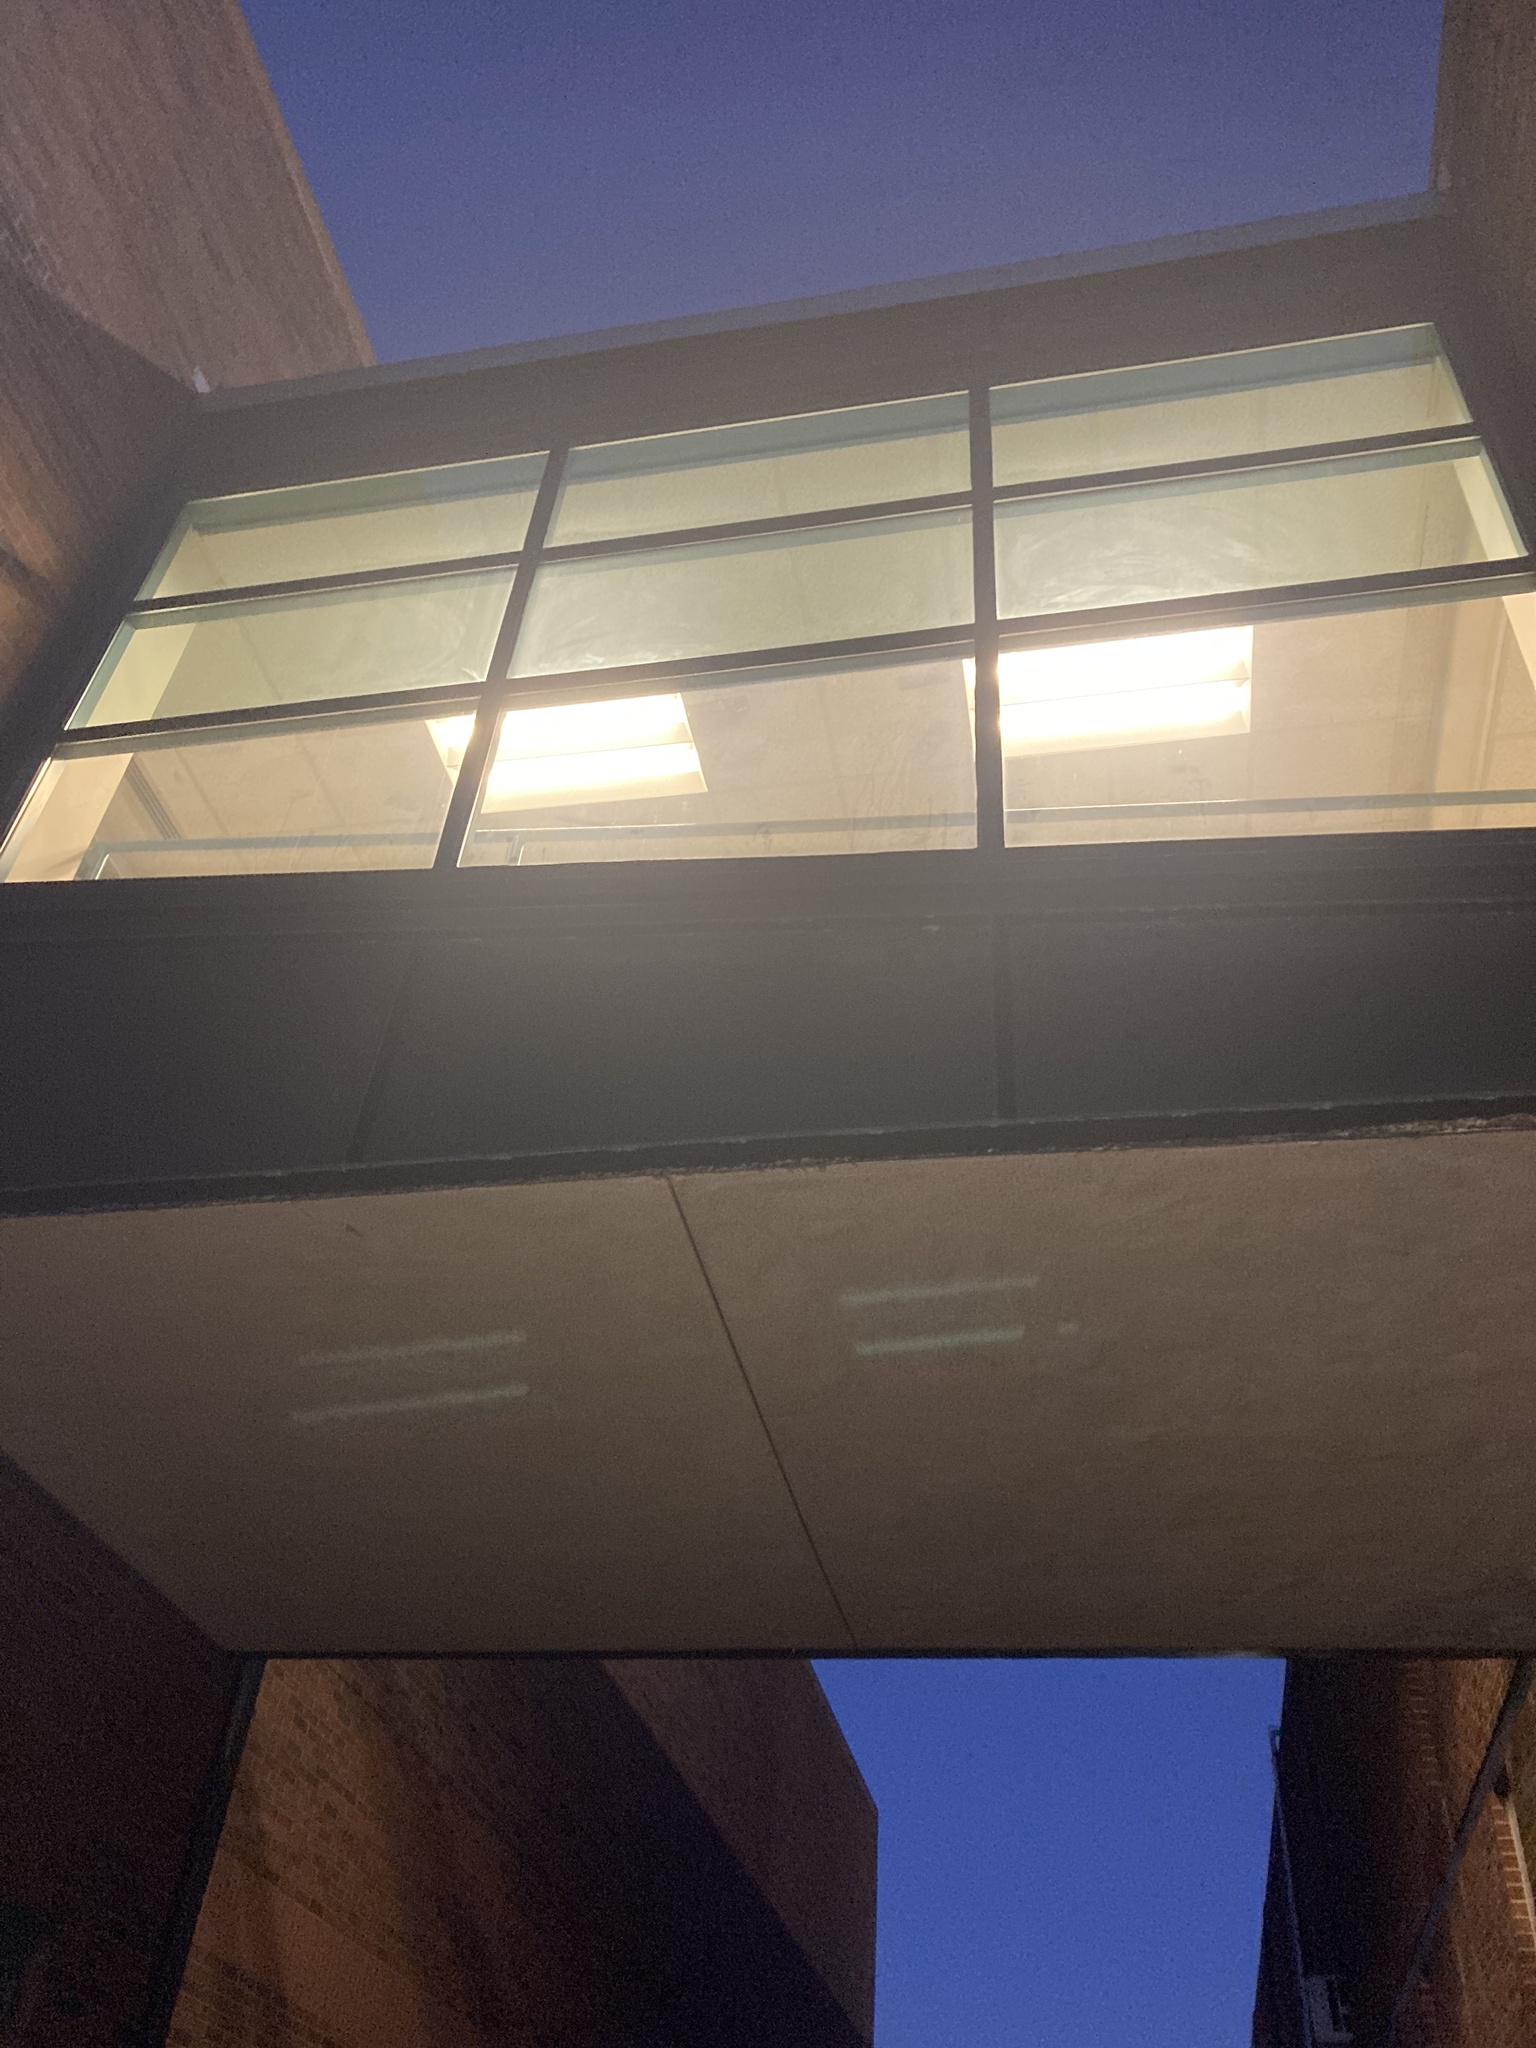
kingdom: Animalia
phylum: Chordata
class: Aves
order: Passeriformes
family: Parulidae
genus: Seiurus
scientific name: Seiurus aurocapilla
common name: Ovenbird
